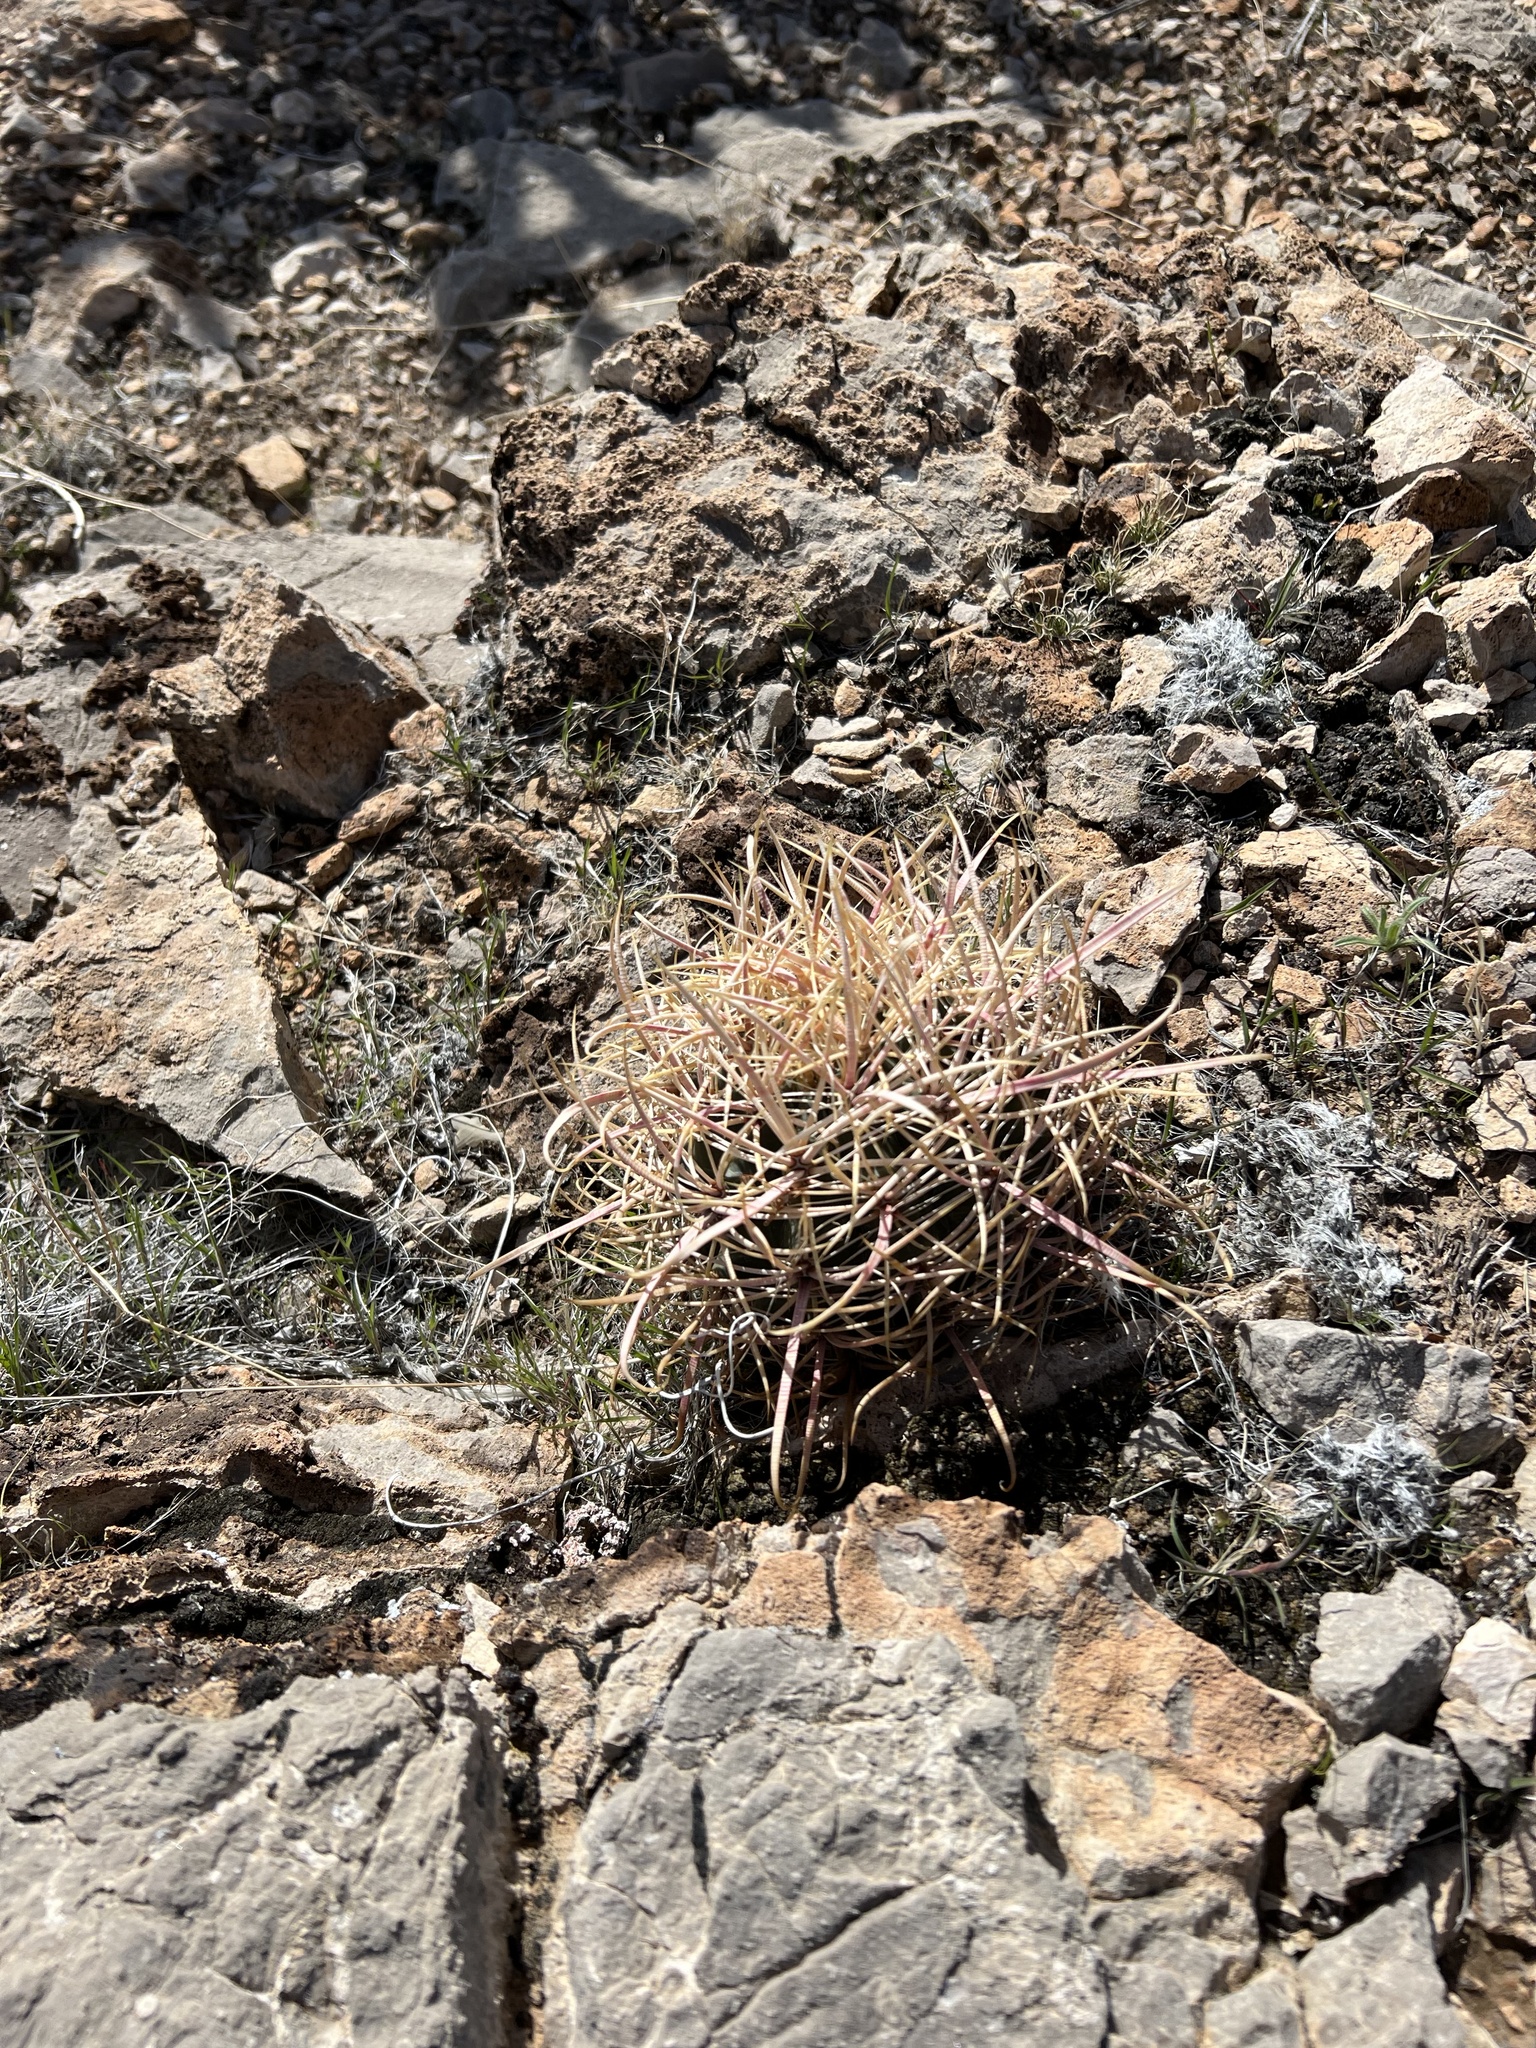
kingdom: Plantae
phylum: Tracheophyta
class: Magnoliopsida
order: Caryophyllales
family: Cactaceae
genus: Ferocactus
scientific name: Ferocactus cylindraceus
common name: California barrel cactus
